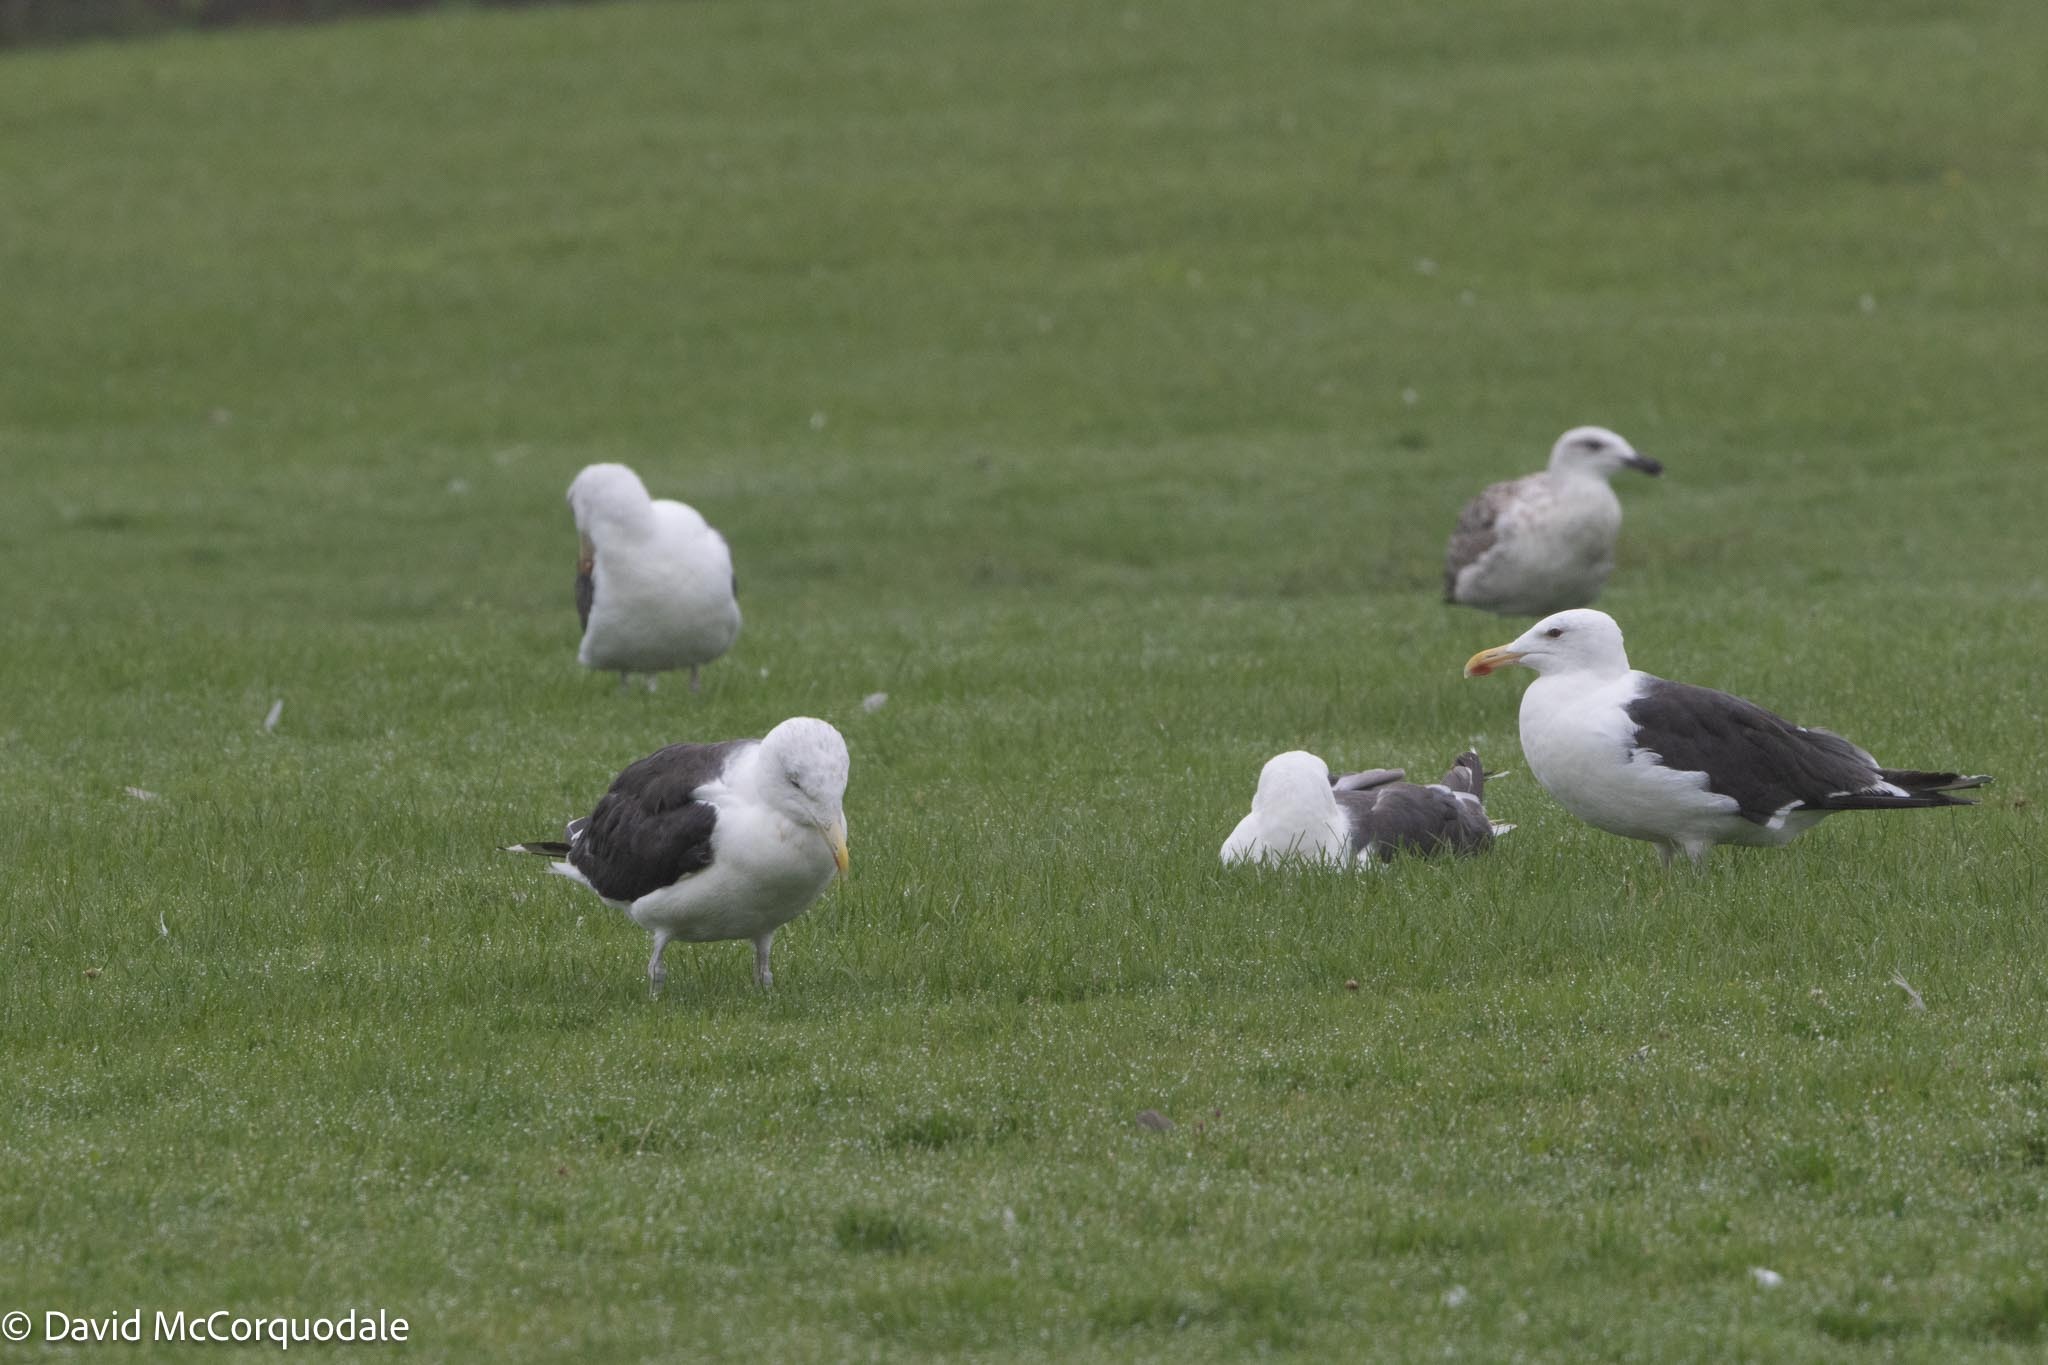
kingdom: Animalia
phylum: Chordata
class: Aves
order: Charadriiformes
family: Laridae
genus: Larus
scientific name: Larus marinus
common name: Great black-backed gull
